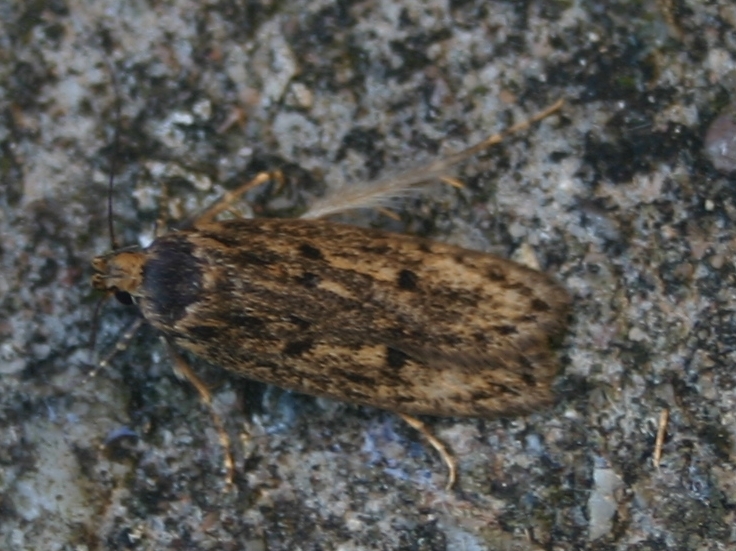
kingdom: Animalia
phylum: Arthropoda
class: Insecta
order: Lepidoptera
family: Oecophoridae
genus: Hofmannophila
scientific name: Hofmannophila pseudospretella
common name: Brown house moth
